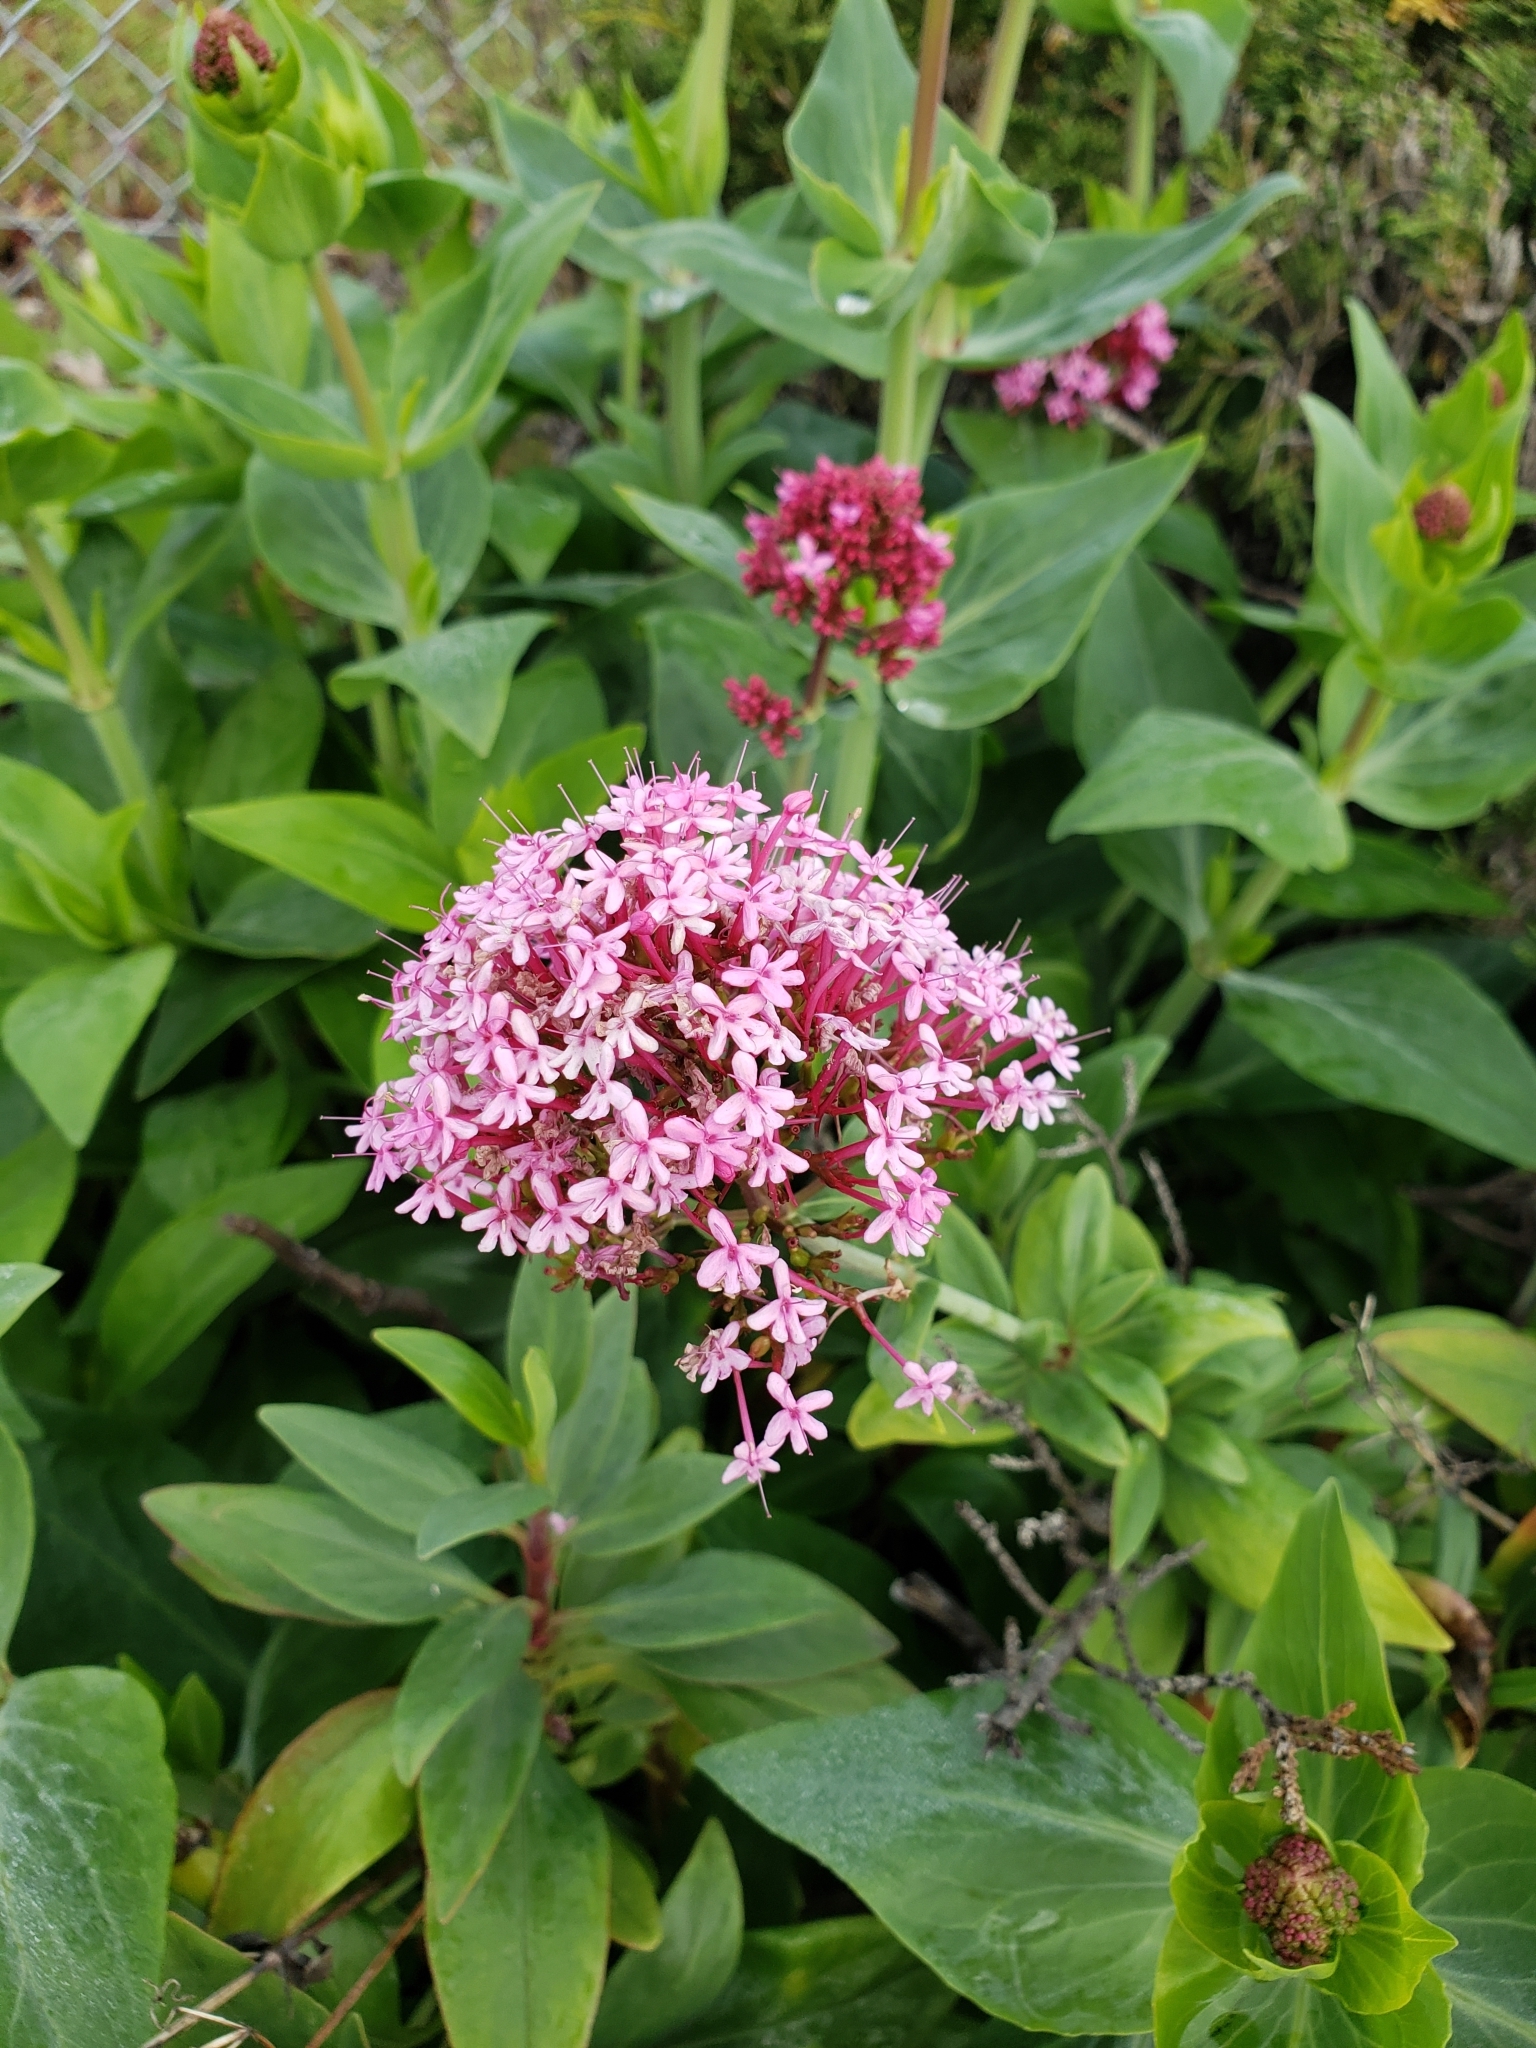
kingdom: Plantae
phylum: Tracheophyta
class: Magnoliopsida
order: Dipsacales
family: Caprifoliaceae
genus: Centranthus
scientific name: Centranthus ruber
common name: Red valerian
